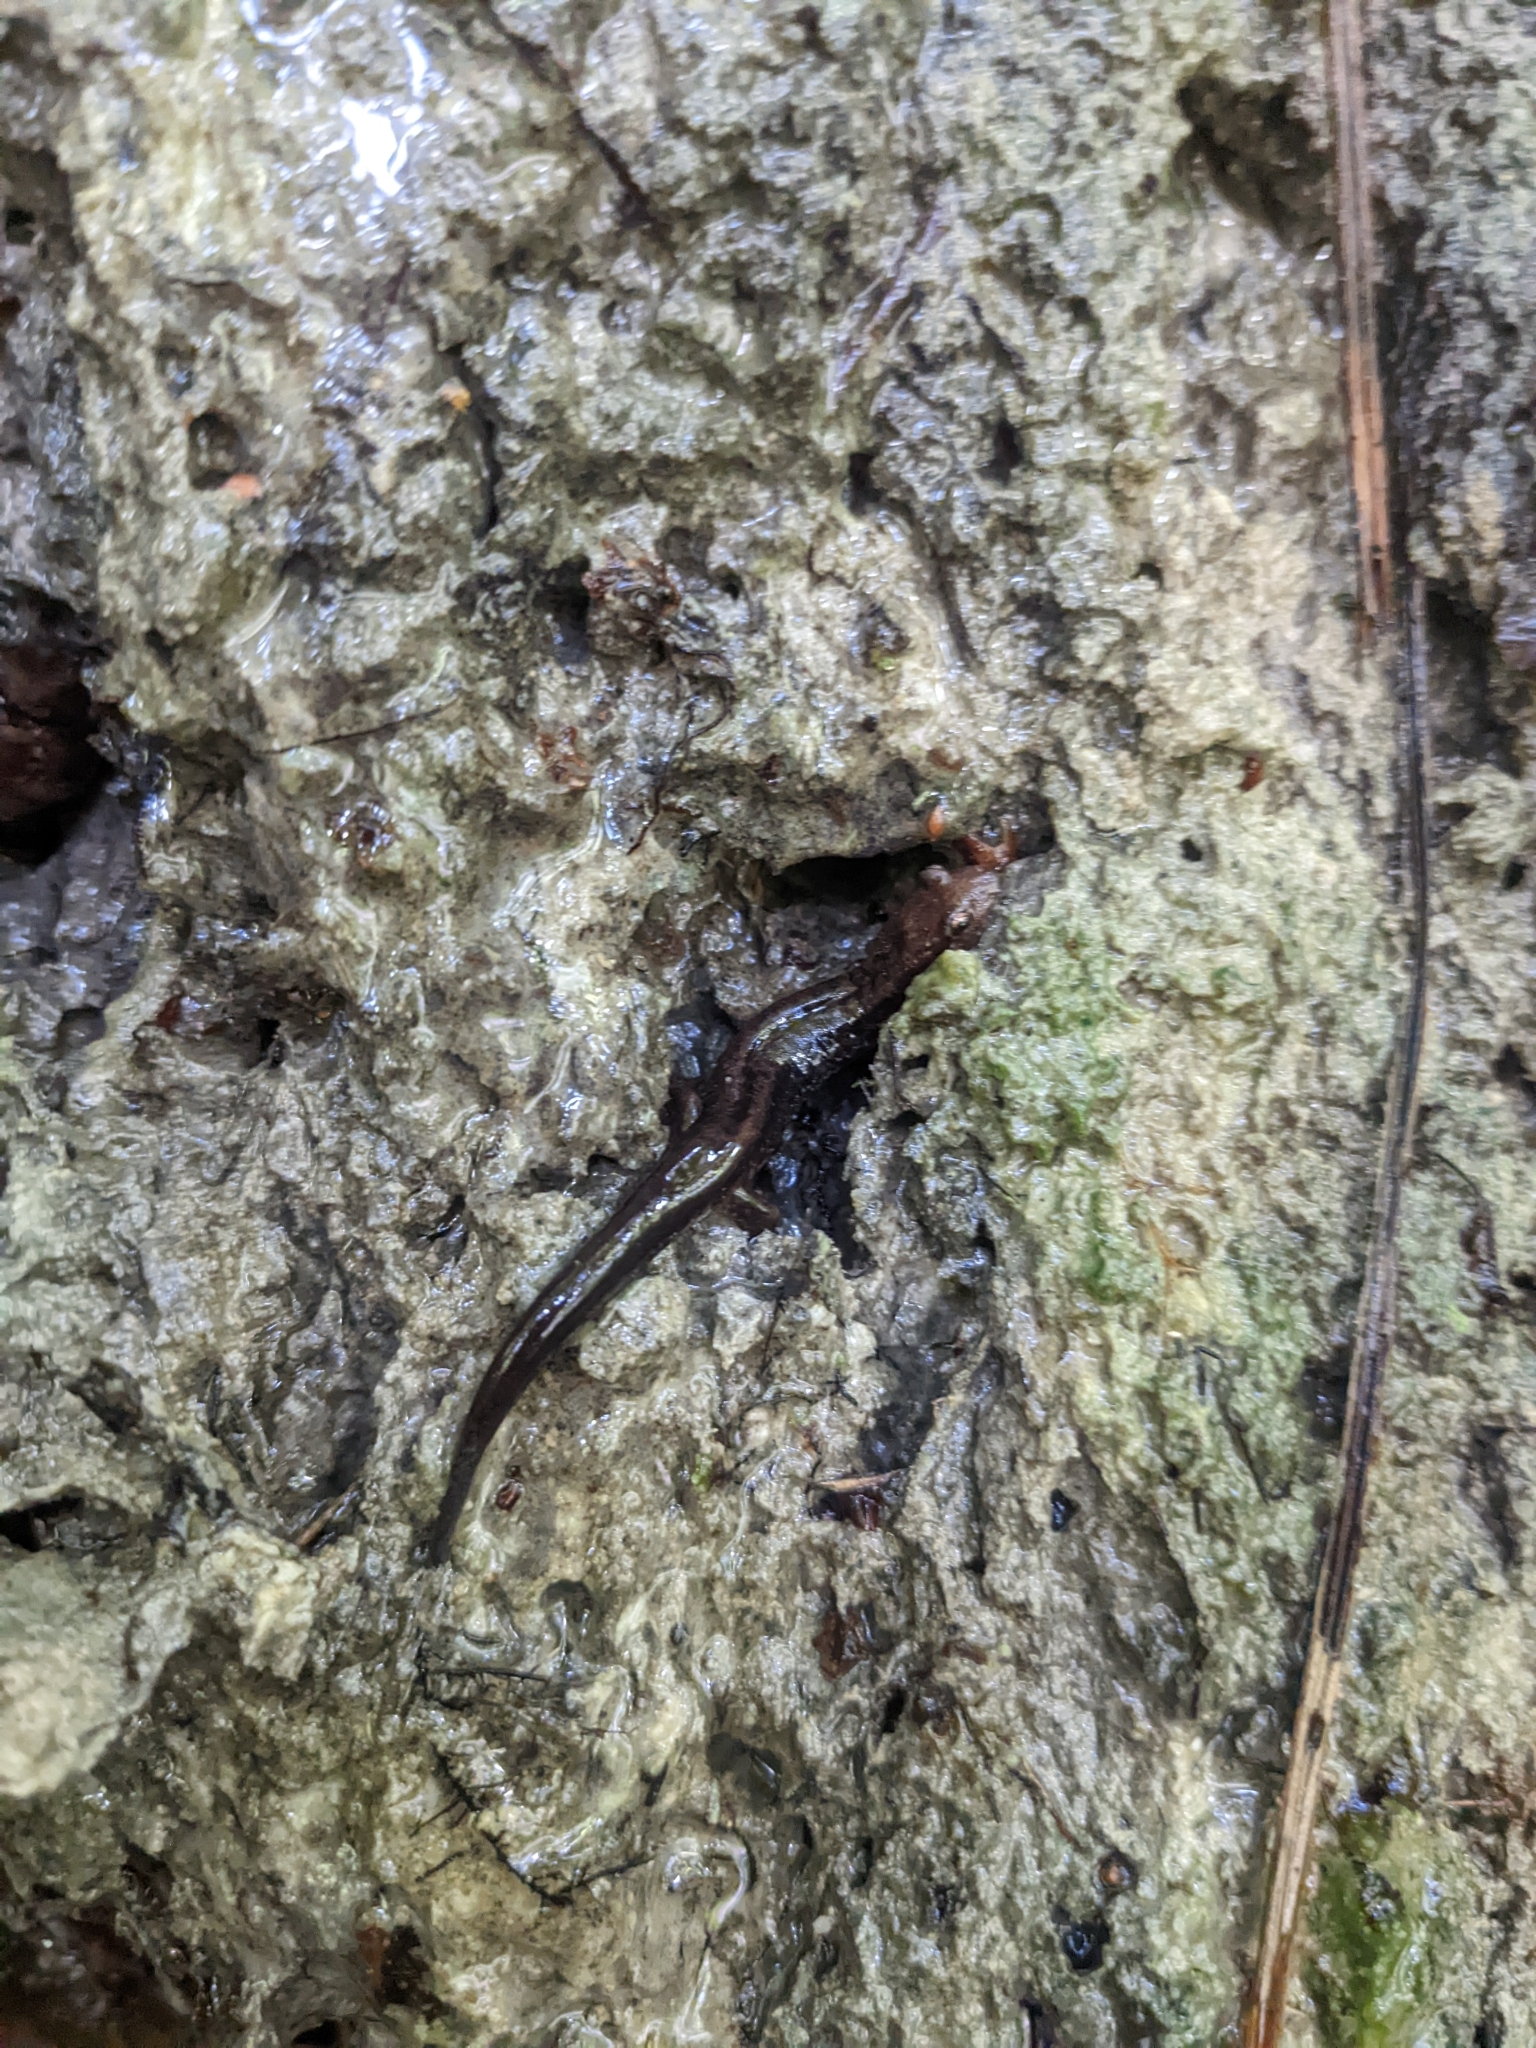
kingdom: Animalia
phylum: Chordata
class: Amphibia
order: Caudata
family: Plethodontidae
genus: Desmognathus
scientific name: Desmognathus ochrophaeus
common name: Allegheny mountain dusky salamander
